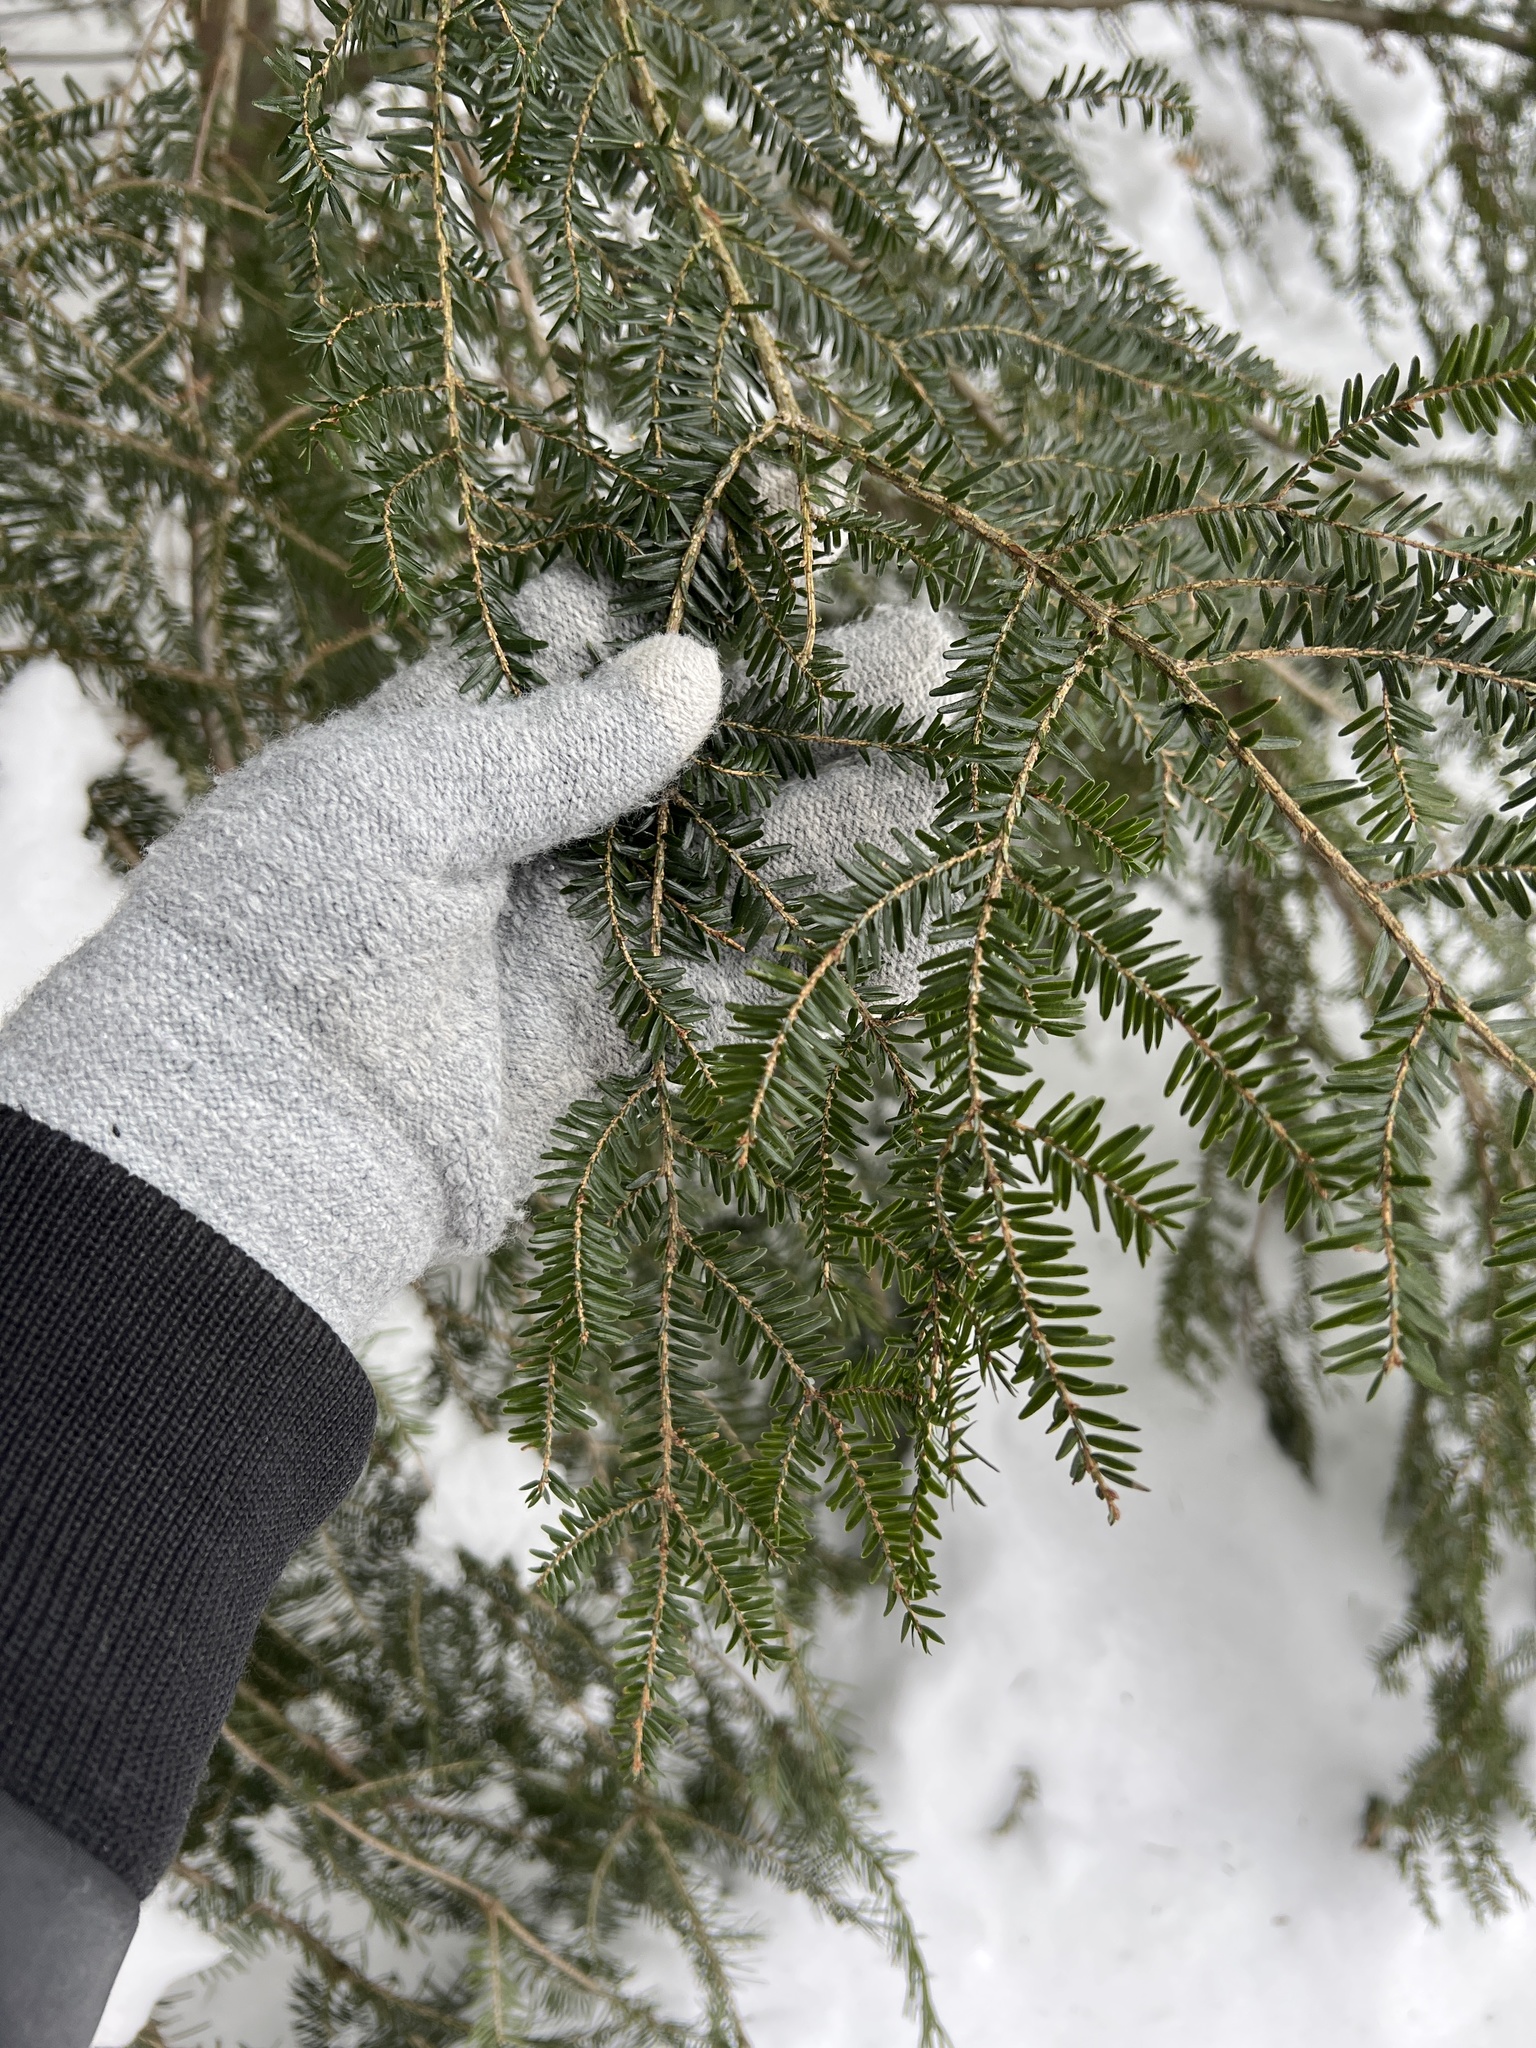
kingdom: Plantae
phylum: Tracheophyta
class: Pinopsida
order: Pinales
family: Pinaceae
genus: Tsuga
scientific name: Tsuga canadensis
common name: Eastern hemlock
